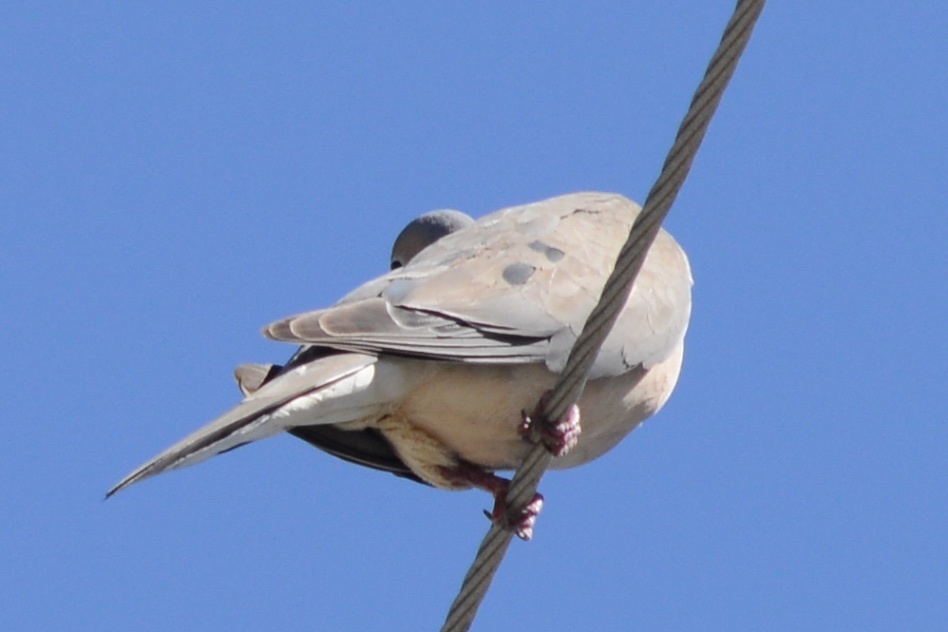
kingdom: Animalia
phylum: Chordata
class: Aves
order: Columbiformes
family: Columbidae
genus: Zenaida
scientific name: Zenaida macroura
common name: Mourning dove
